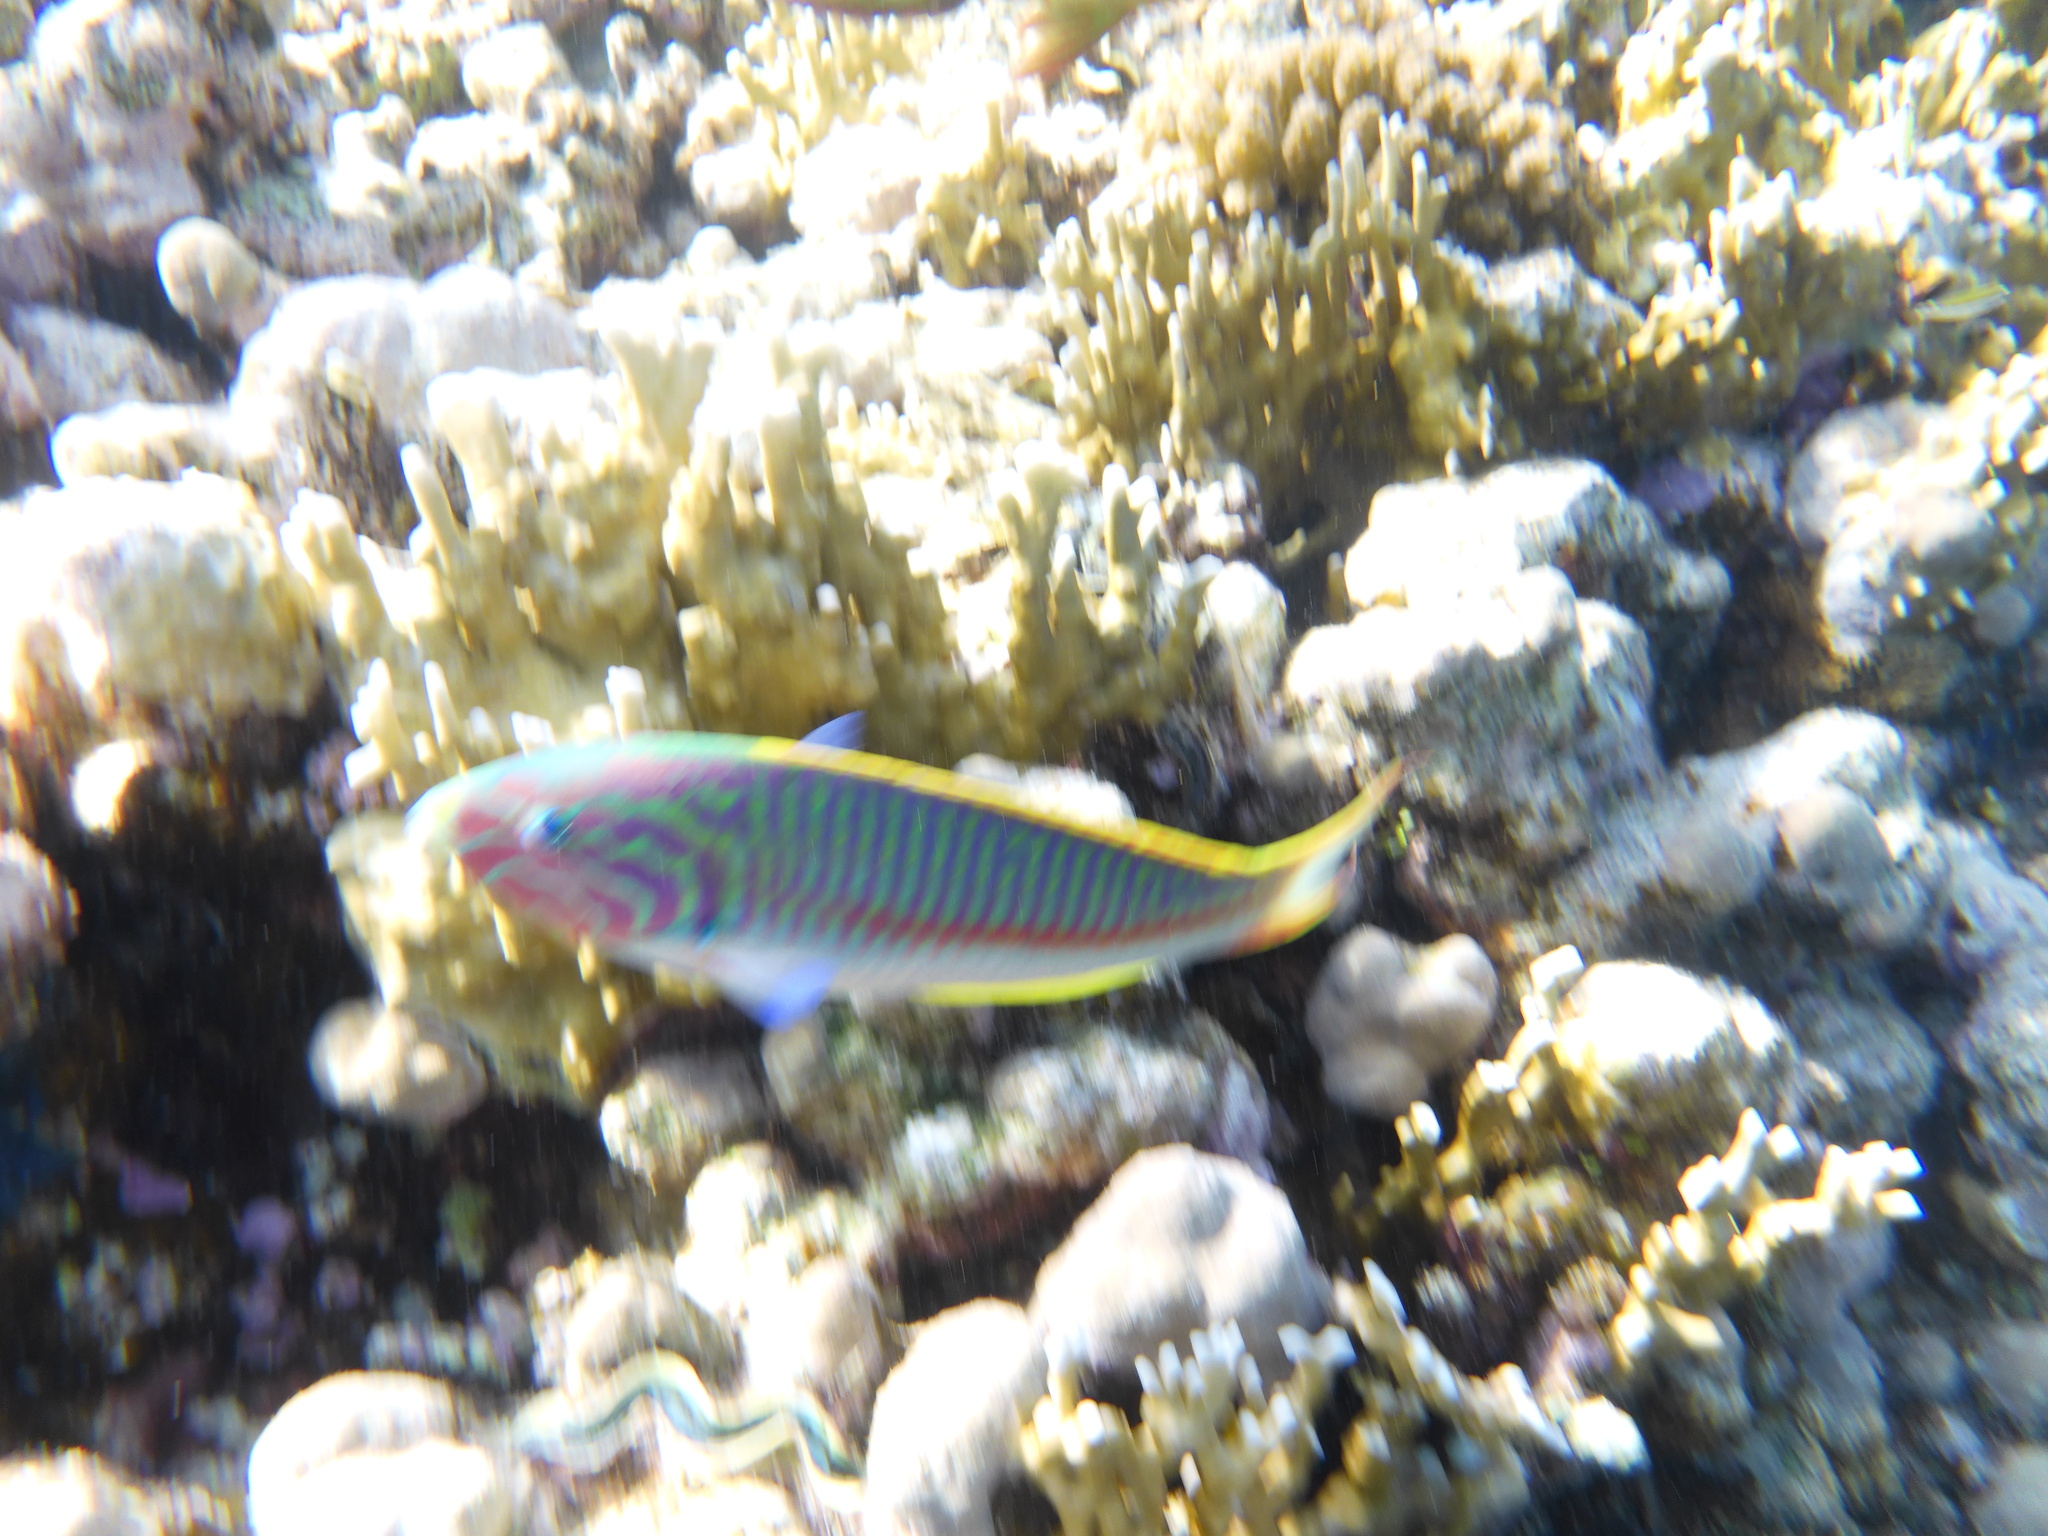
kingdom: Animalia
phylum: Chordata
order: Perciformes
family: Labridae
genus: Thalassoma
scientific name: Thalassoma rueppellii
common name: Klunzinger's wrasse
